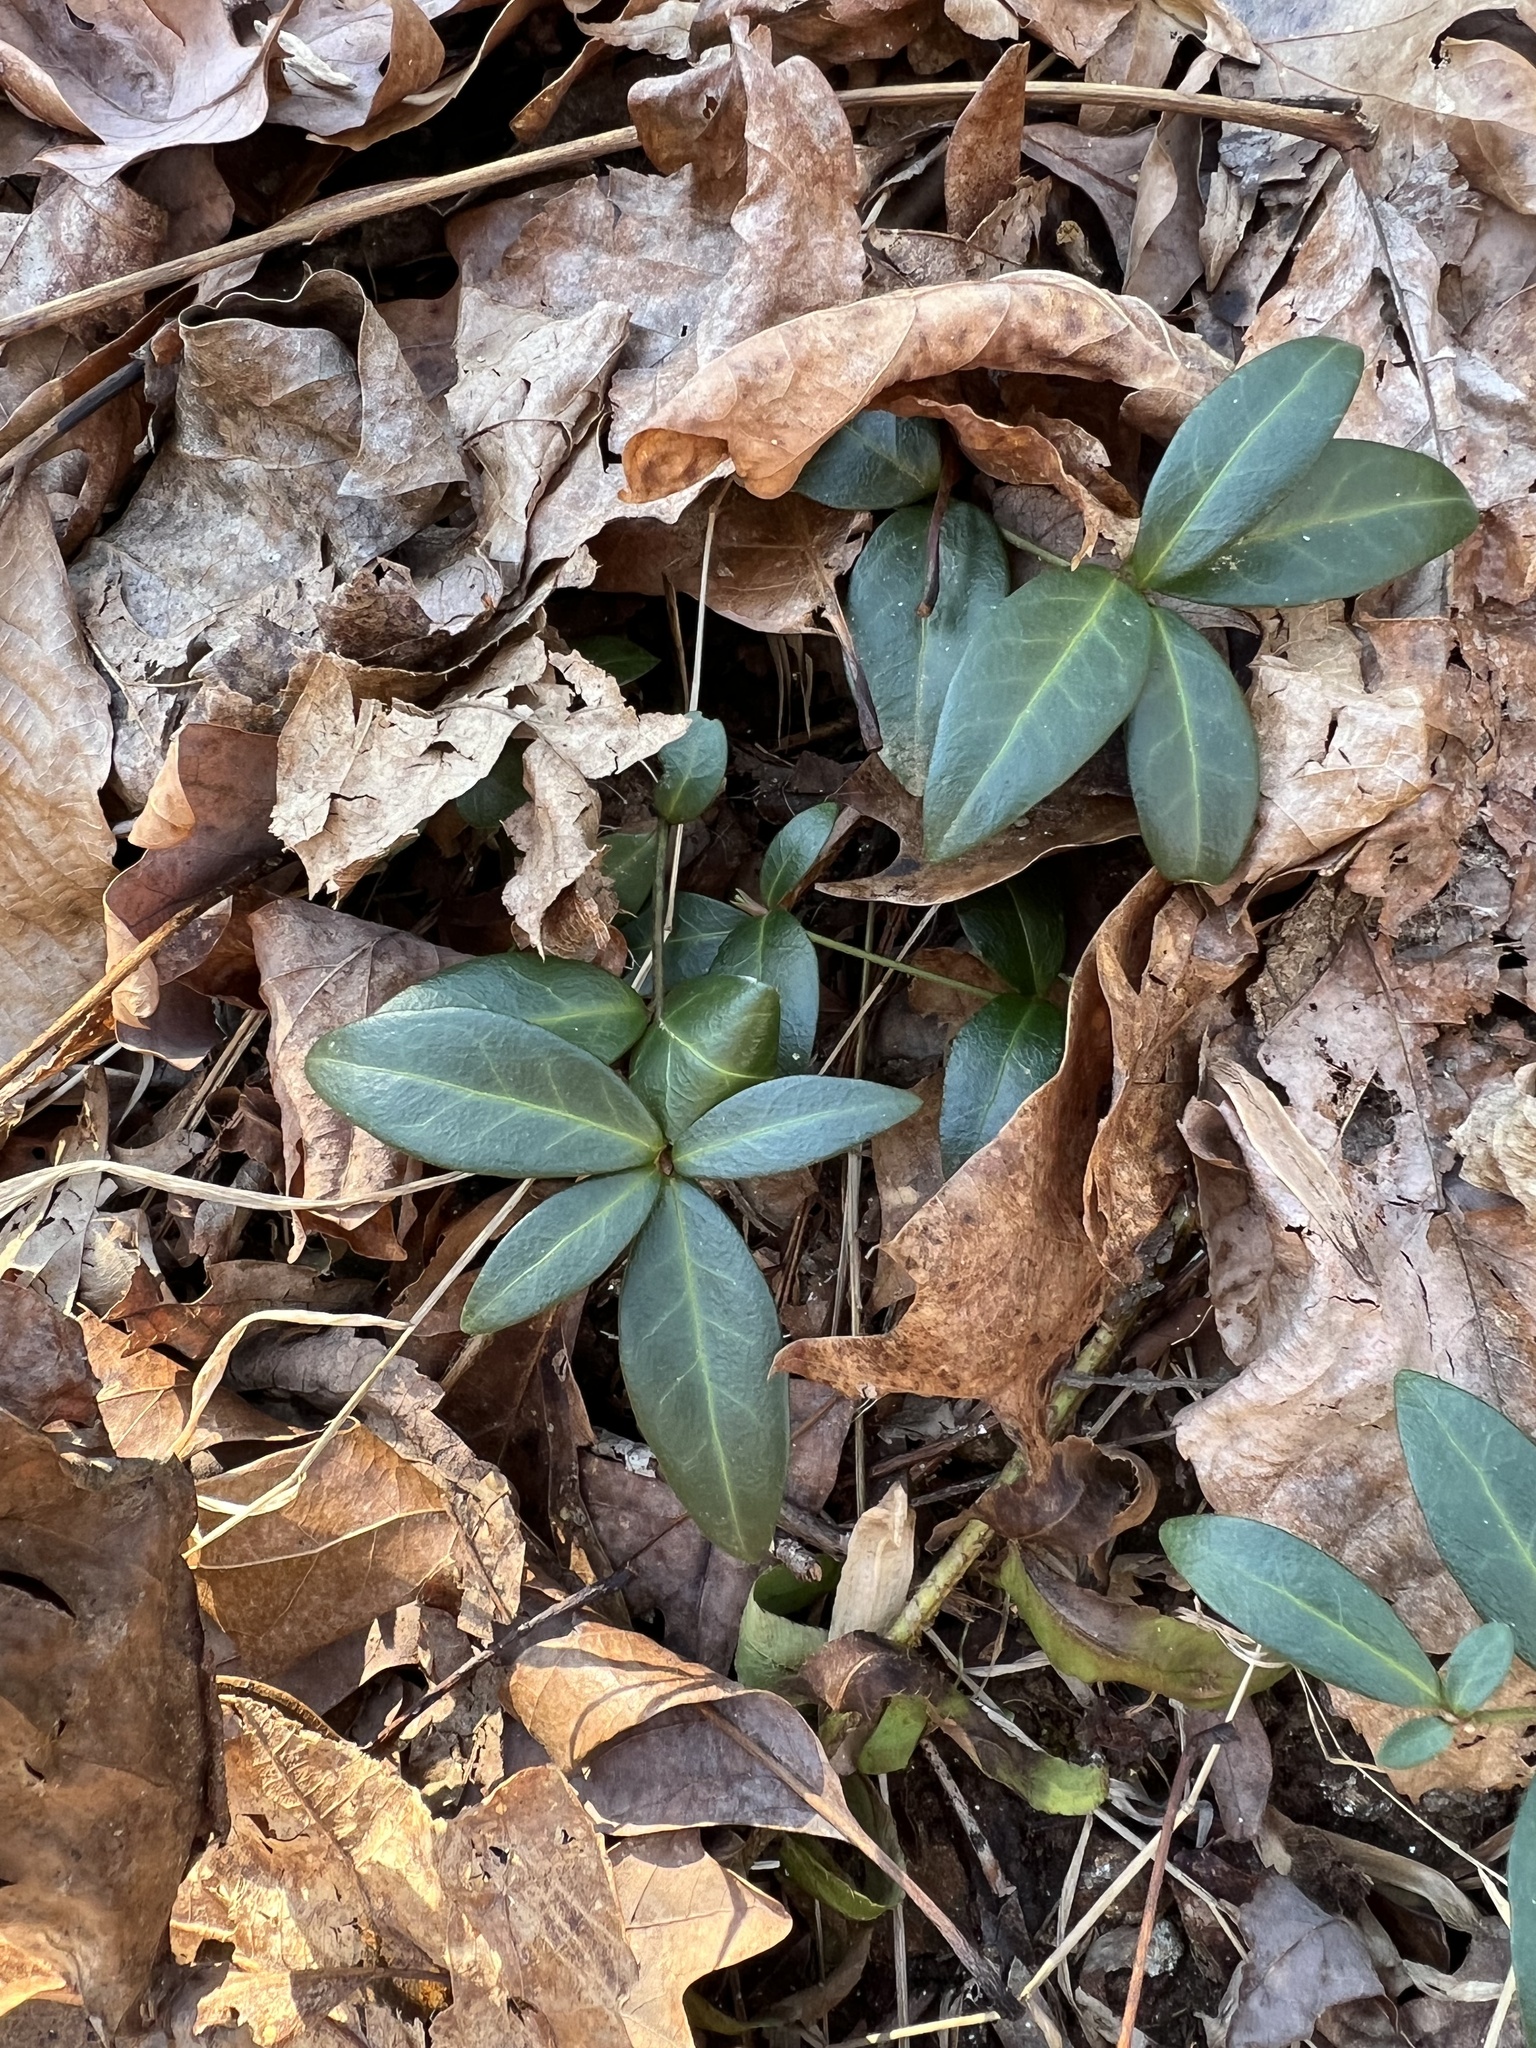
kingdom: Plantae
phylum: Tracheophyta
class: Magnoliopsida
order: Gentianales
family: Apocynaceae
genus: Vinca
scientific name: Vinca minor
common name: Lesser periwinkle
